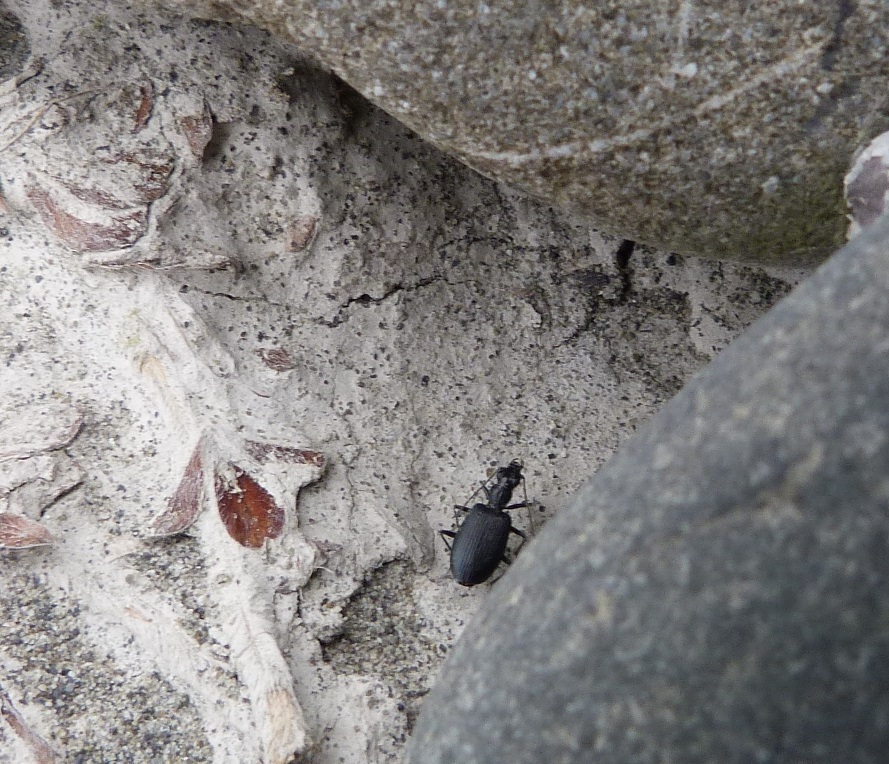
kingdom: Animalia
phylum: Arthropoda
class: Insecta
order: Coleoptera
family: Carabidae
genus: Actenonyx
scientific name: Actenonyx bembidioides
